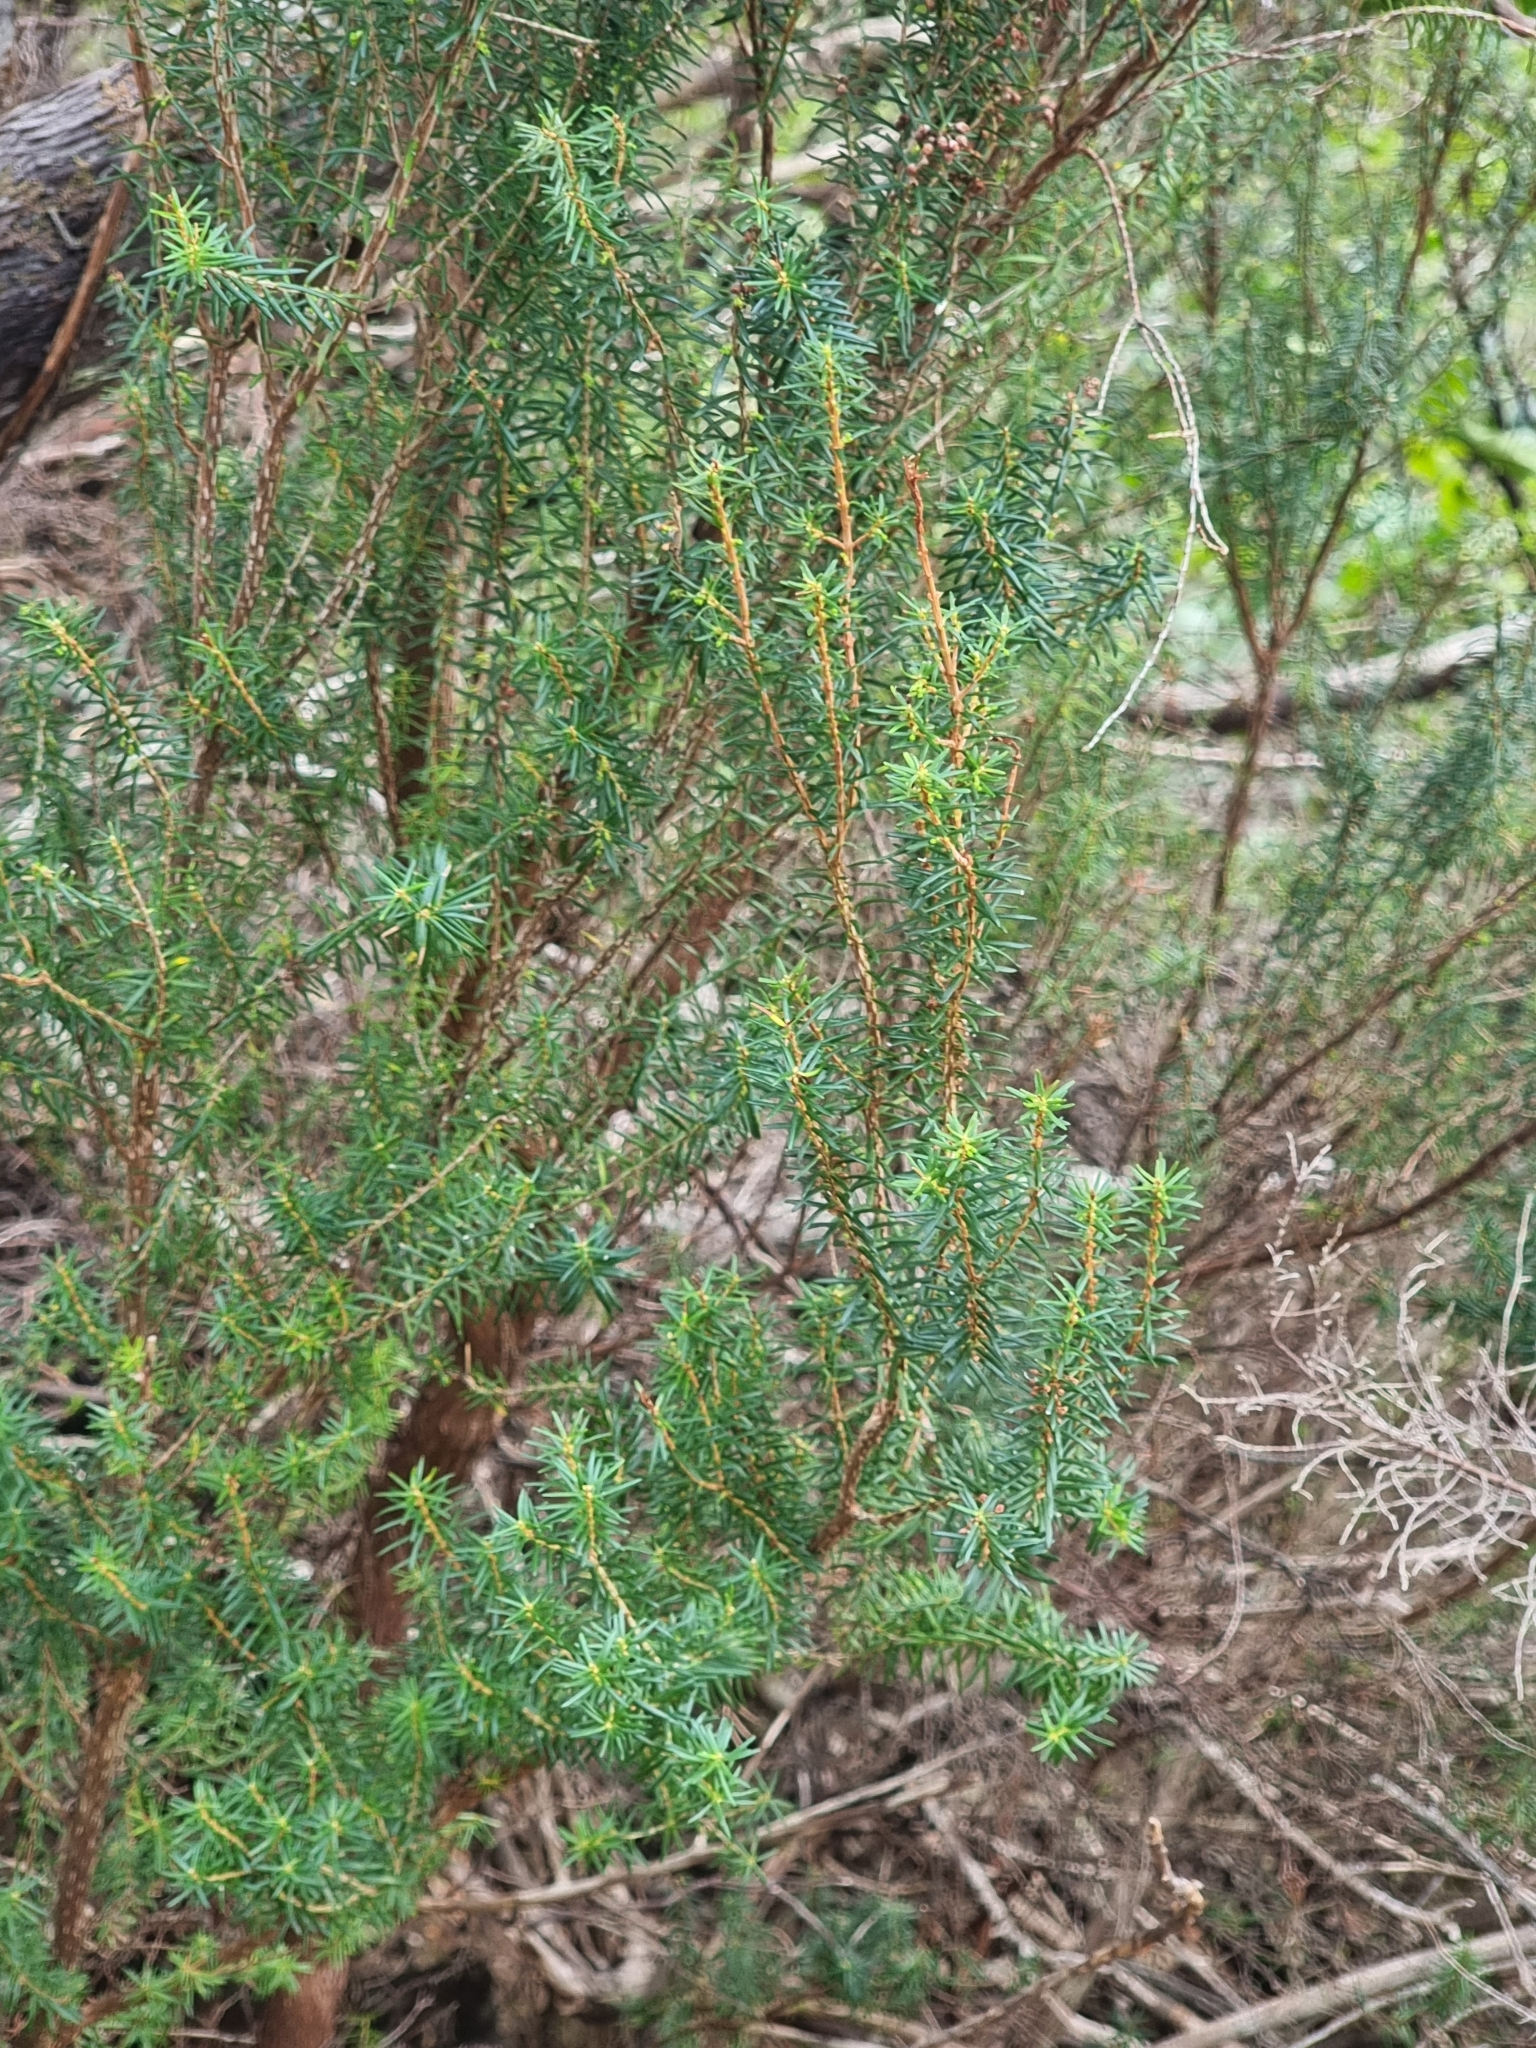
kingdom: Plantae
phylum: Tracheophyta
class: Magnoliopsida
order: Ericales
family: Ericaceae
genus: Erica
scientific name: Erica platycodon
